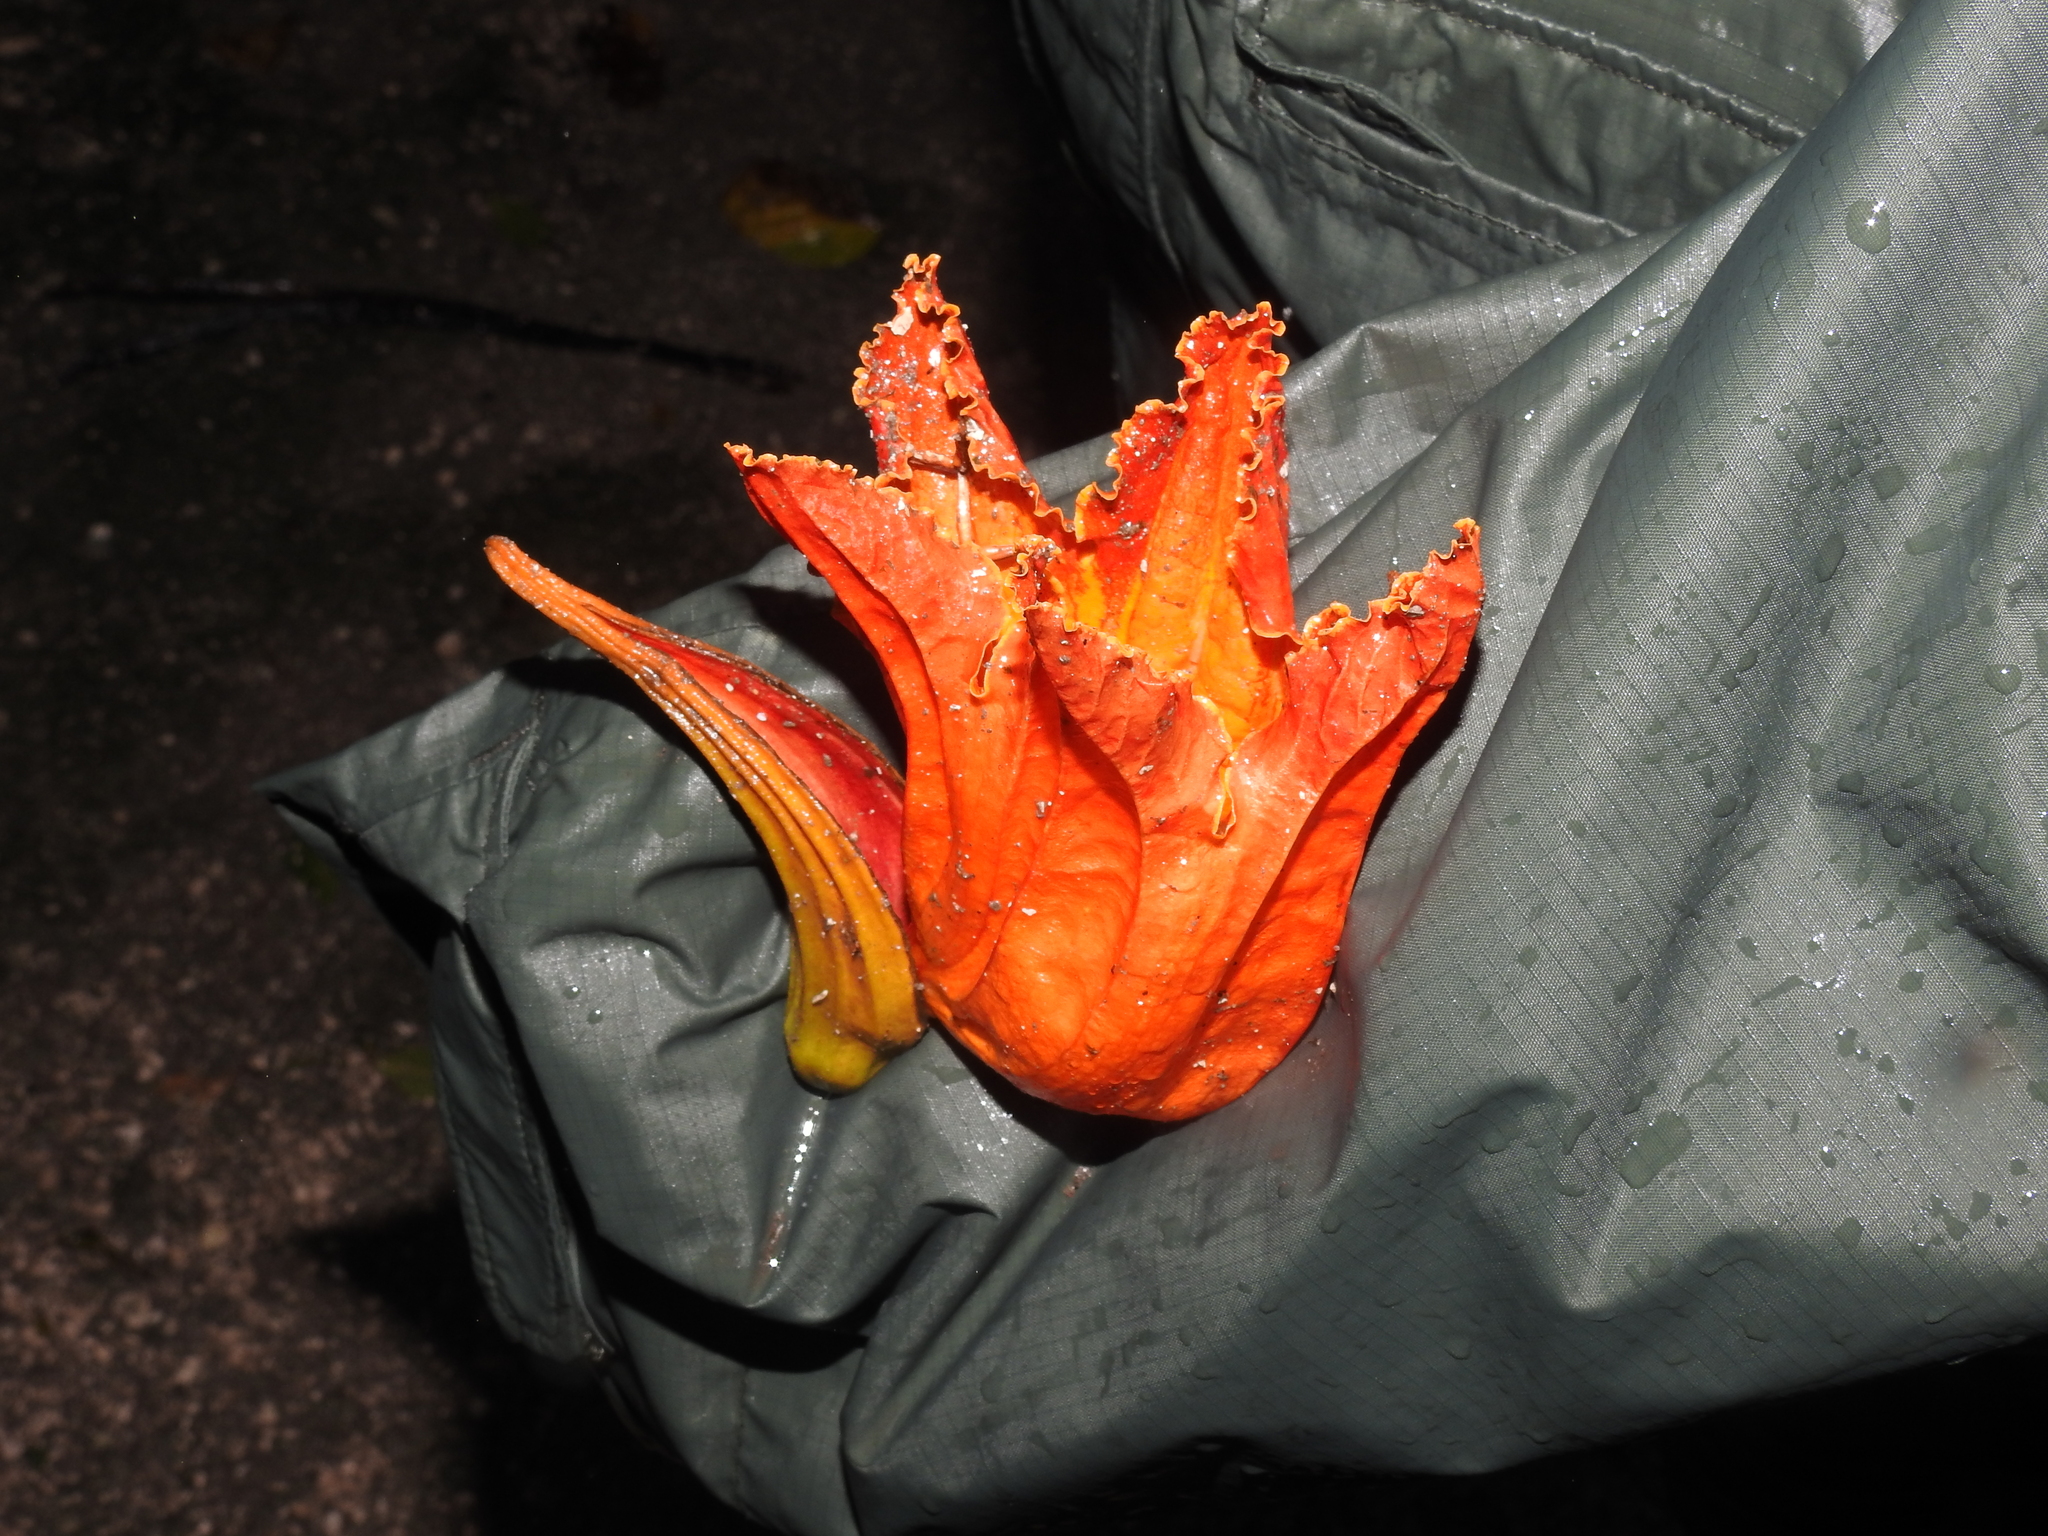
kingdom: Plantae
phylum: Tracheophyta
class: Magnoliopsida
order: Lamiales
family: Bignoniaceae
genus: Spathodea
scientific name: Spathodea campanulata
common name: African tuliptree
